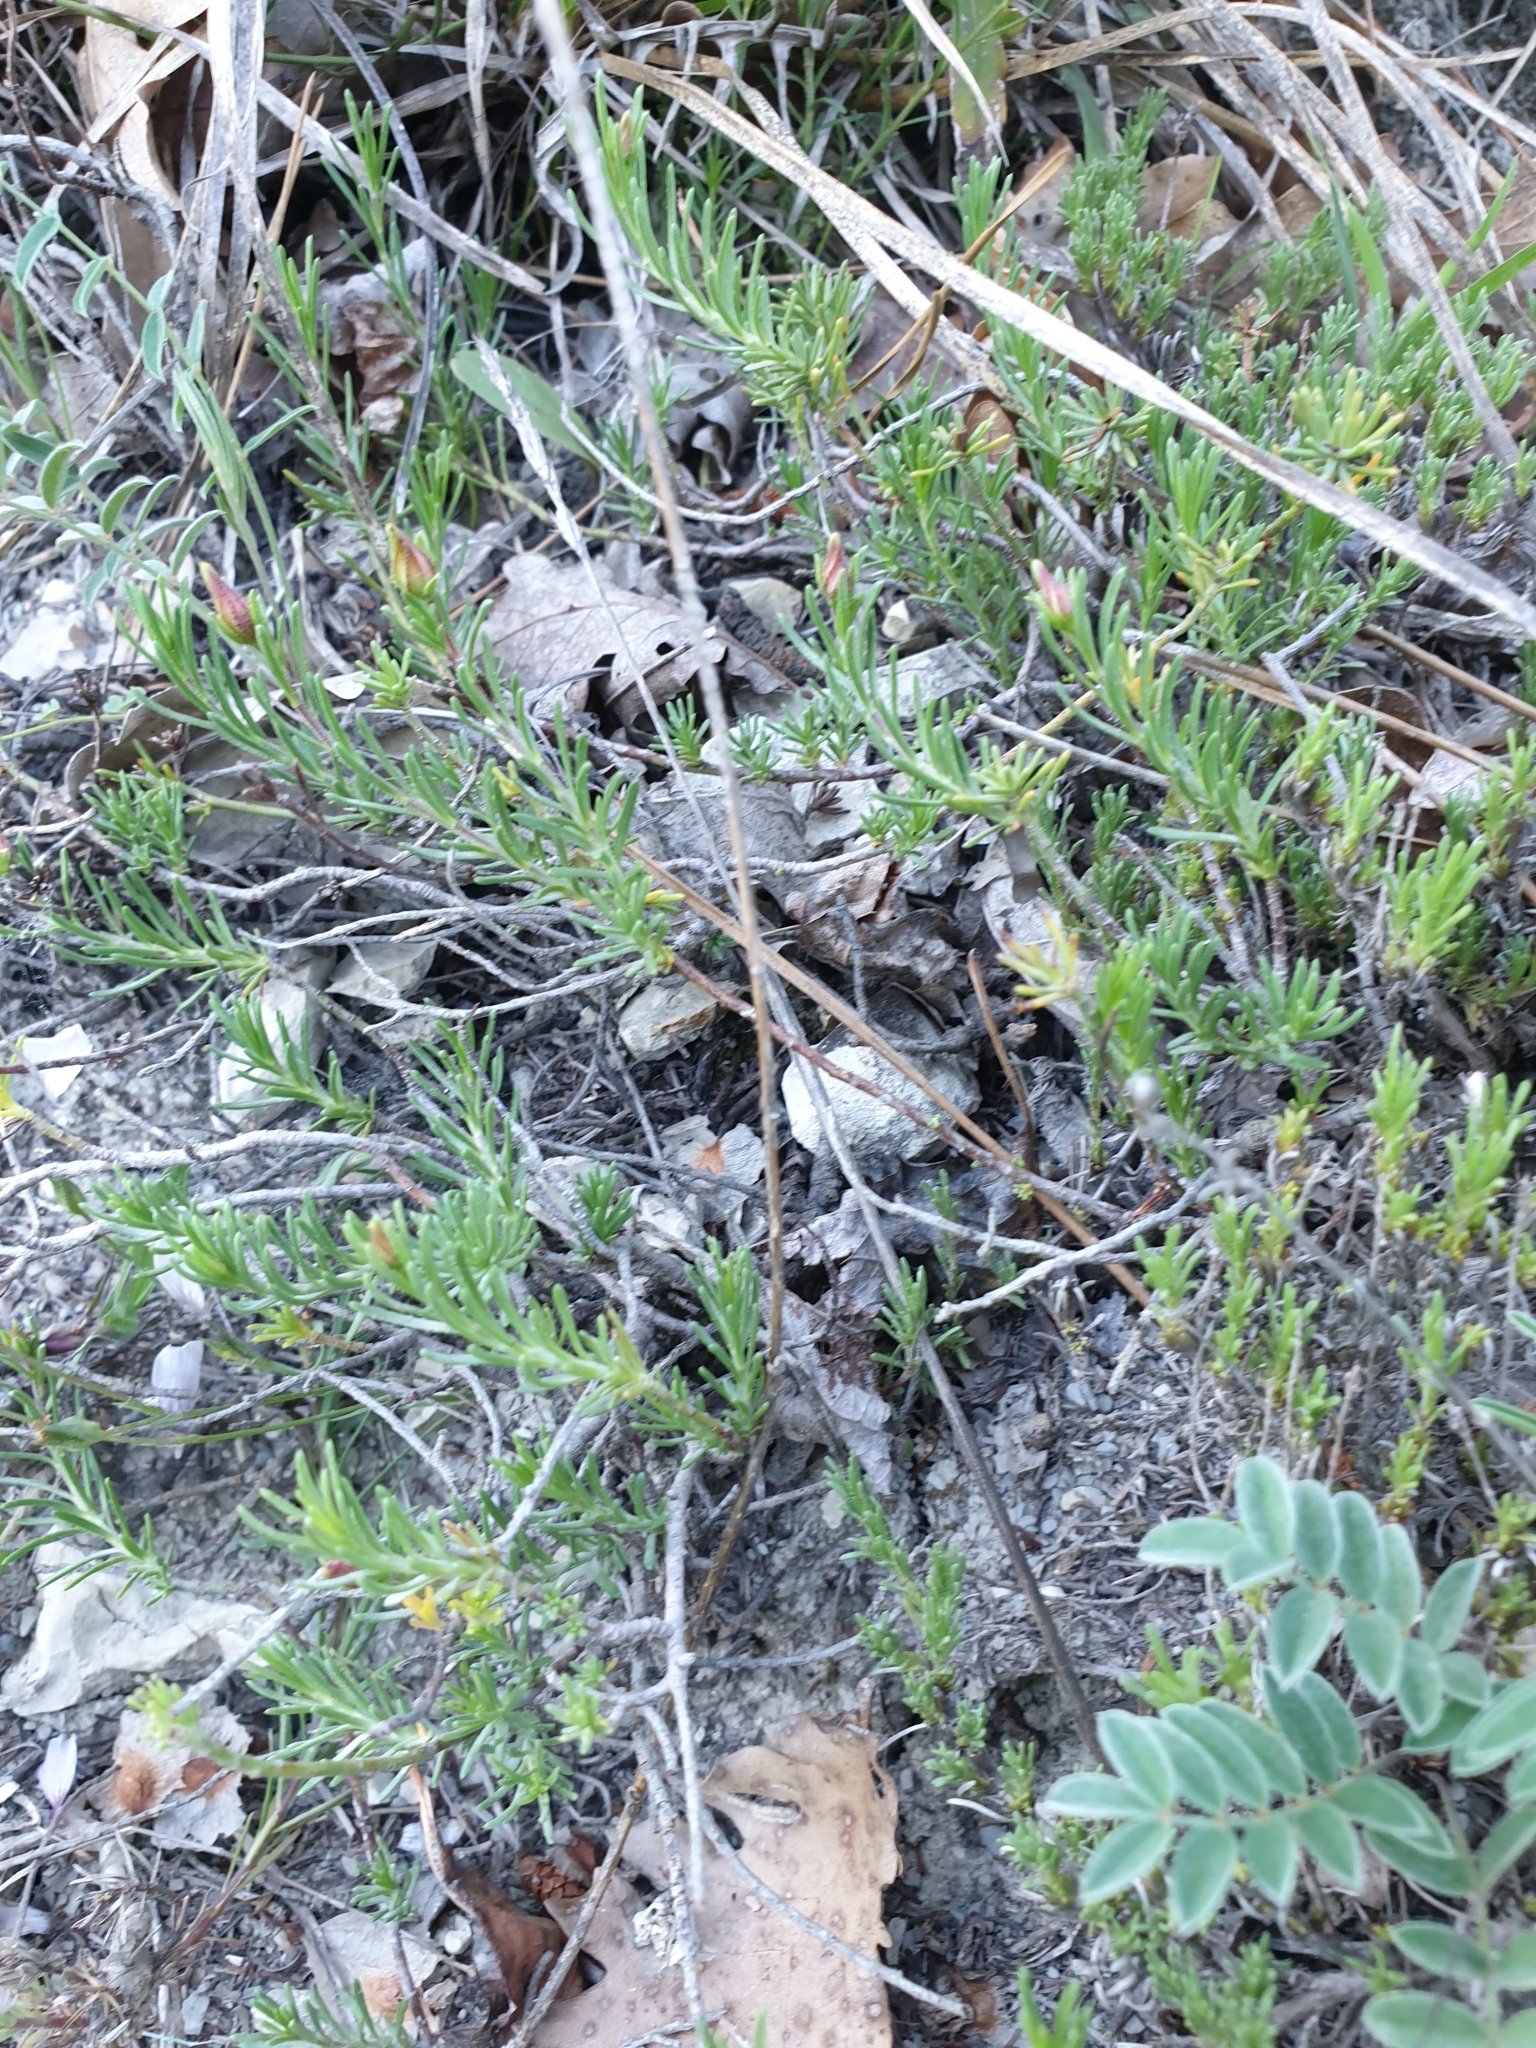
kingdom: Plantae
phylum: Tracheophyta
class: Magnoliopsida
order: Malvales
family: Cistaceae
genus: Fumana
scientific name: Fumana procumbens
